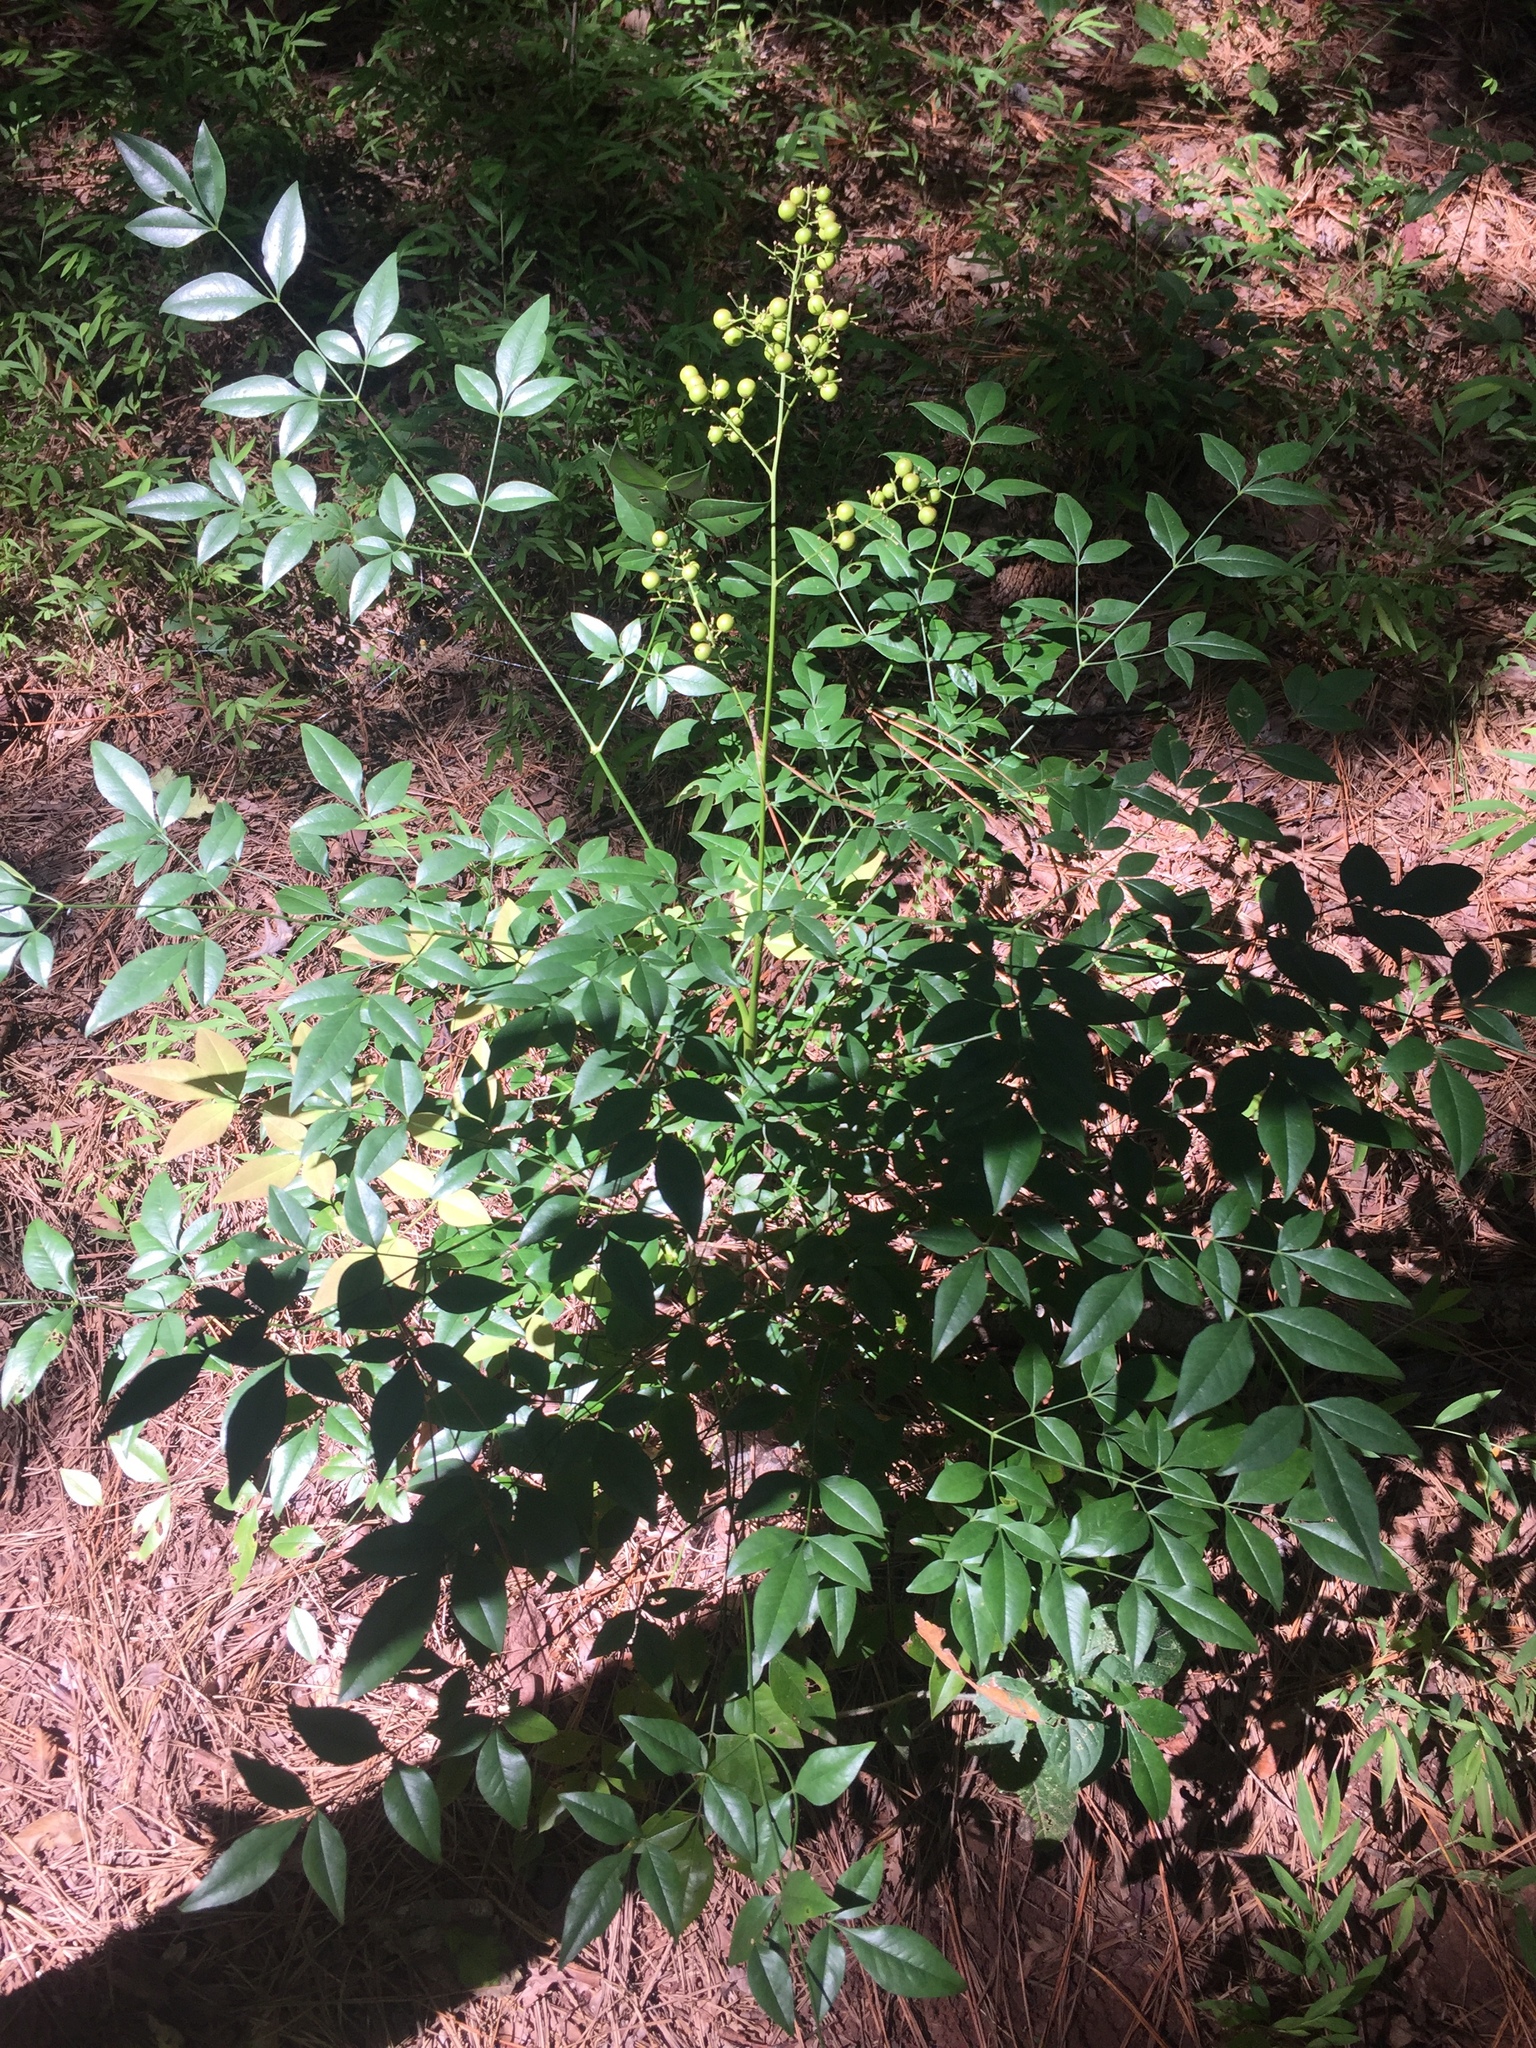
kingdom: Plantae
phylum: Tracheophyta
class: Magnoliopsida
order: Ranunculales
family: Berberidaceae
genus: Nandina
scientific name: Nandina domestica
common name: Sacred bamboo
